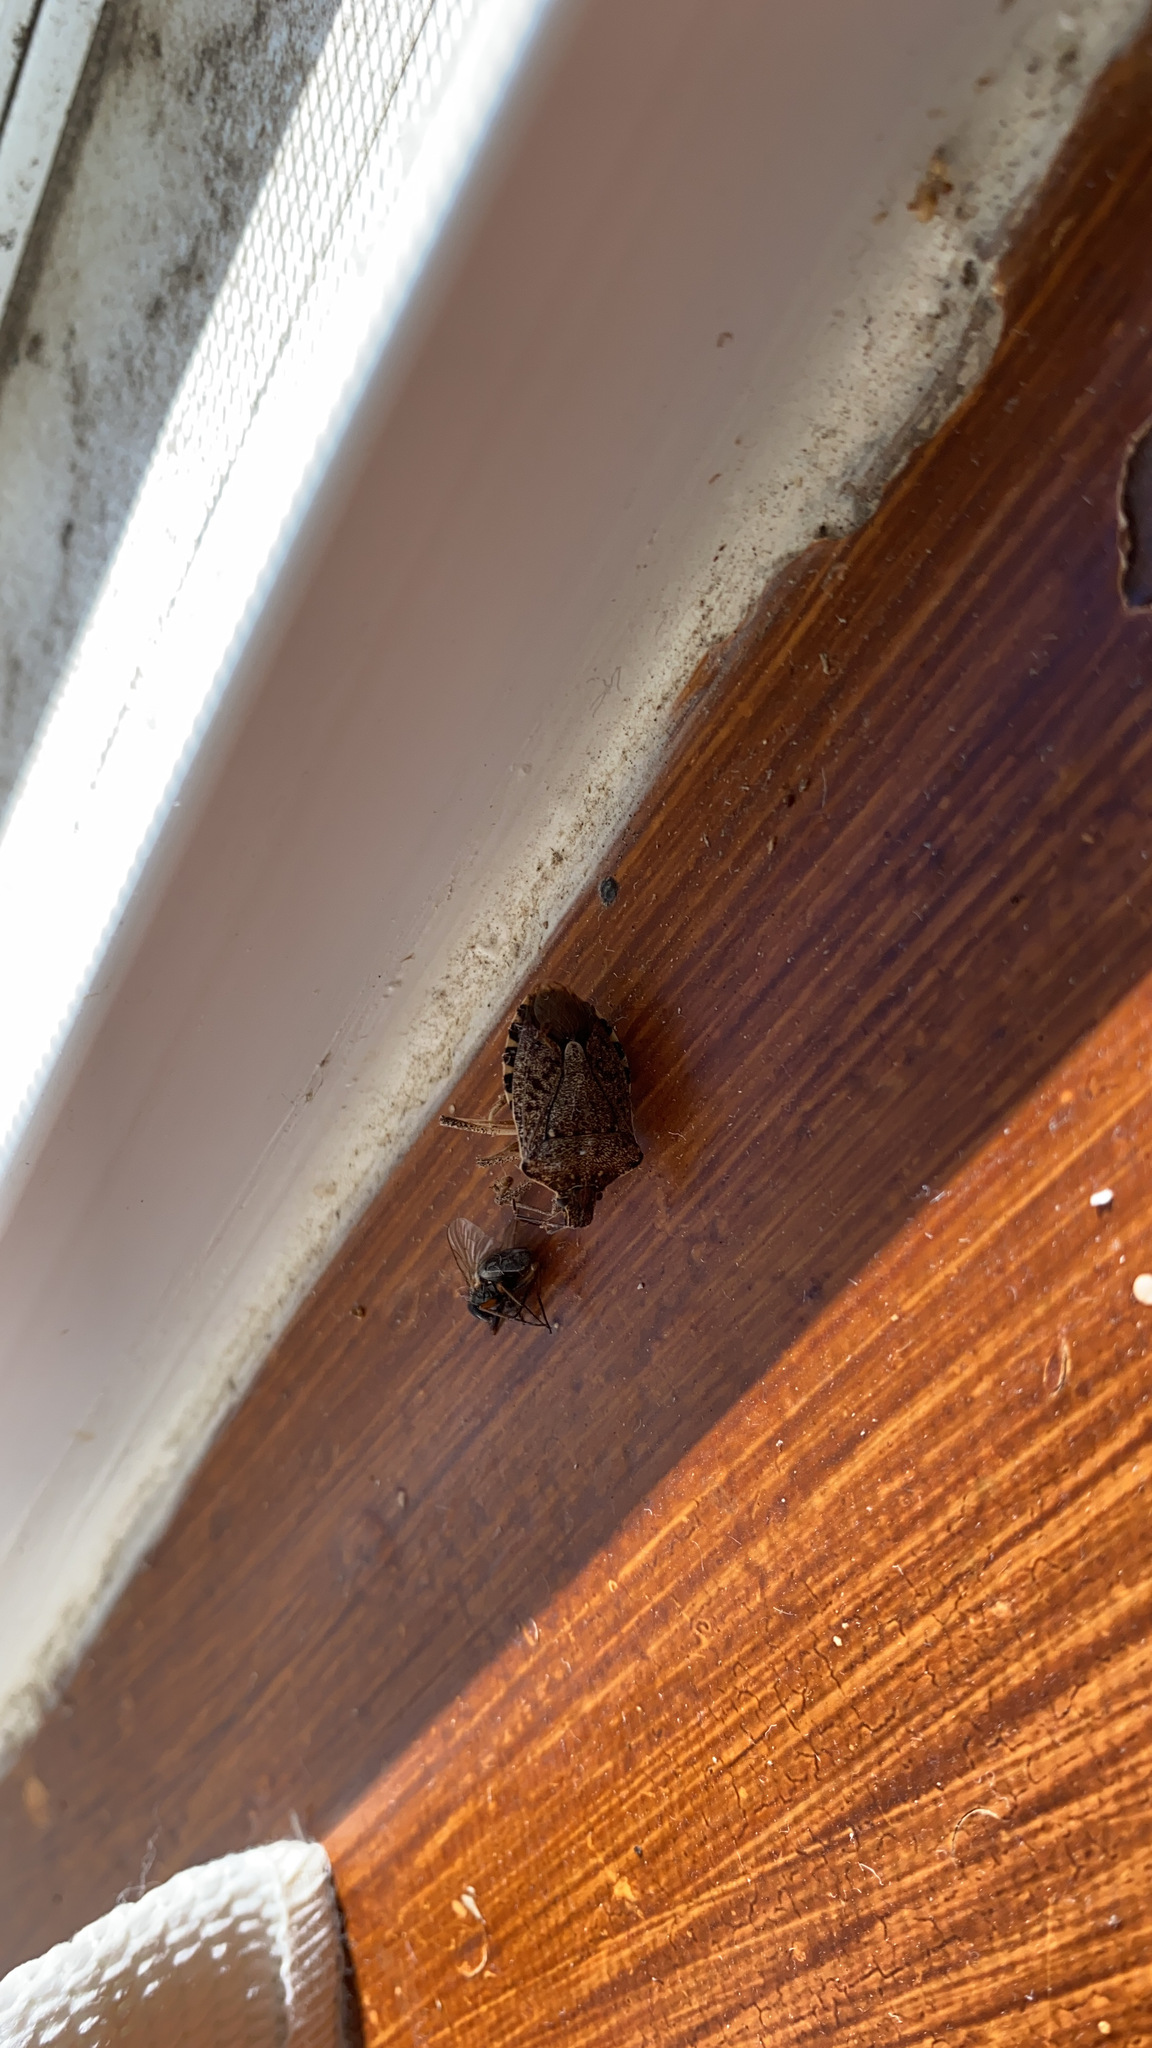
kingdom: Animalia
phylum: Arthropoda
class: Insecta
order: Hemiptera
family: Pentatomidae
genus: Halyomorpha
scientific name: Halyomorpha halys
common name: Brown marmorated stink bug
